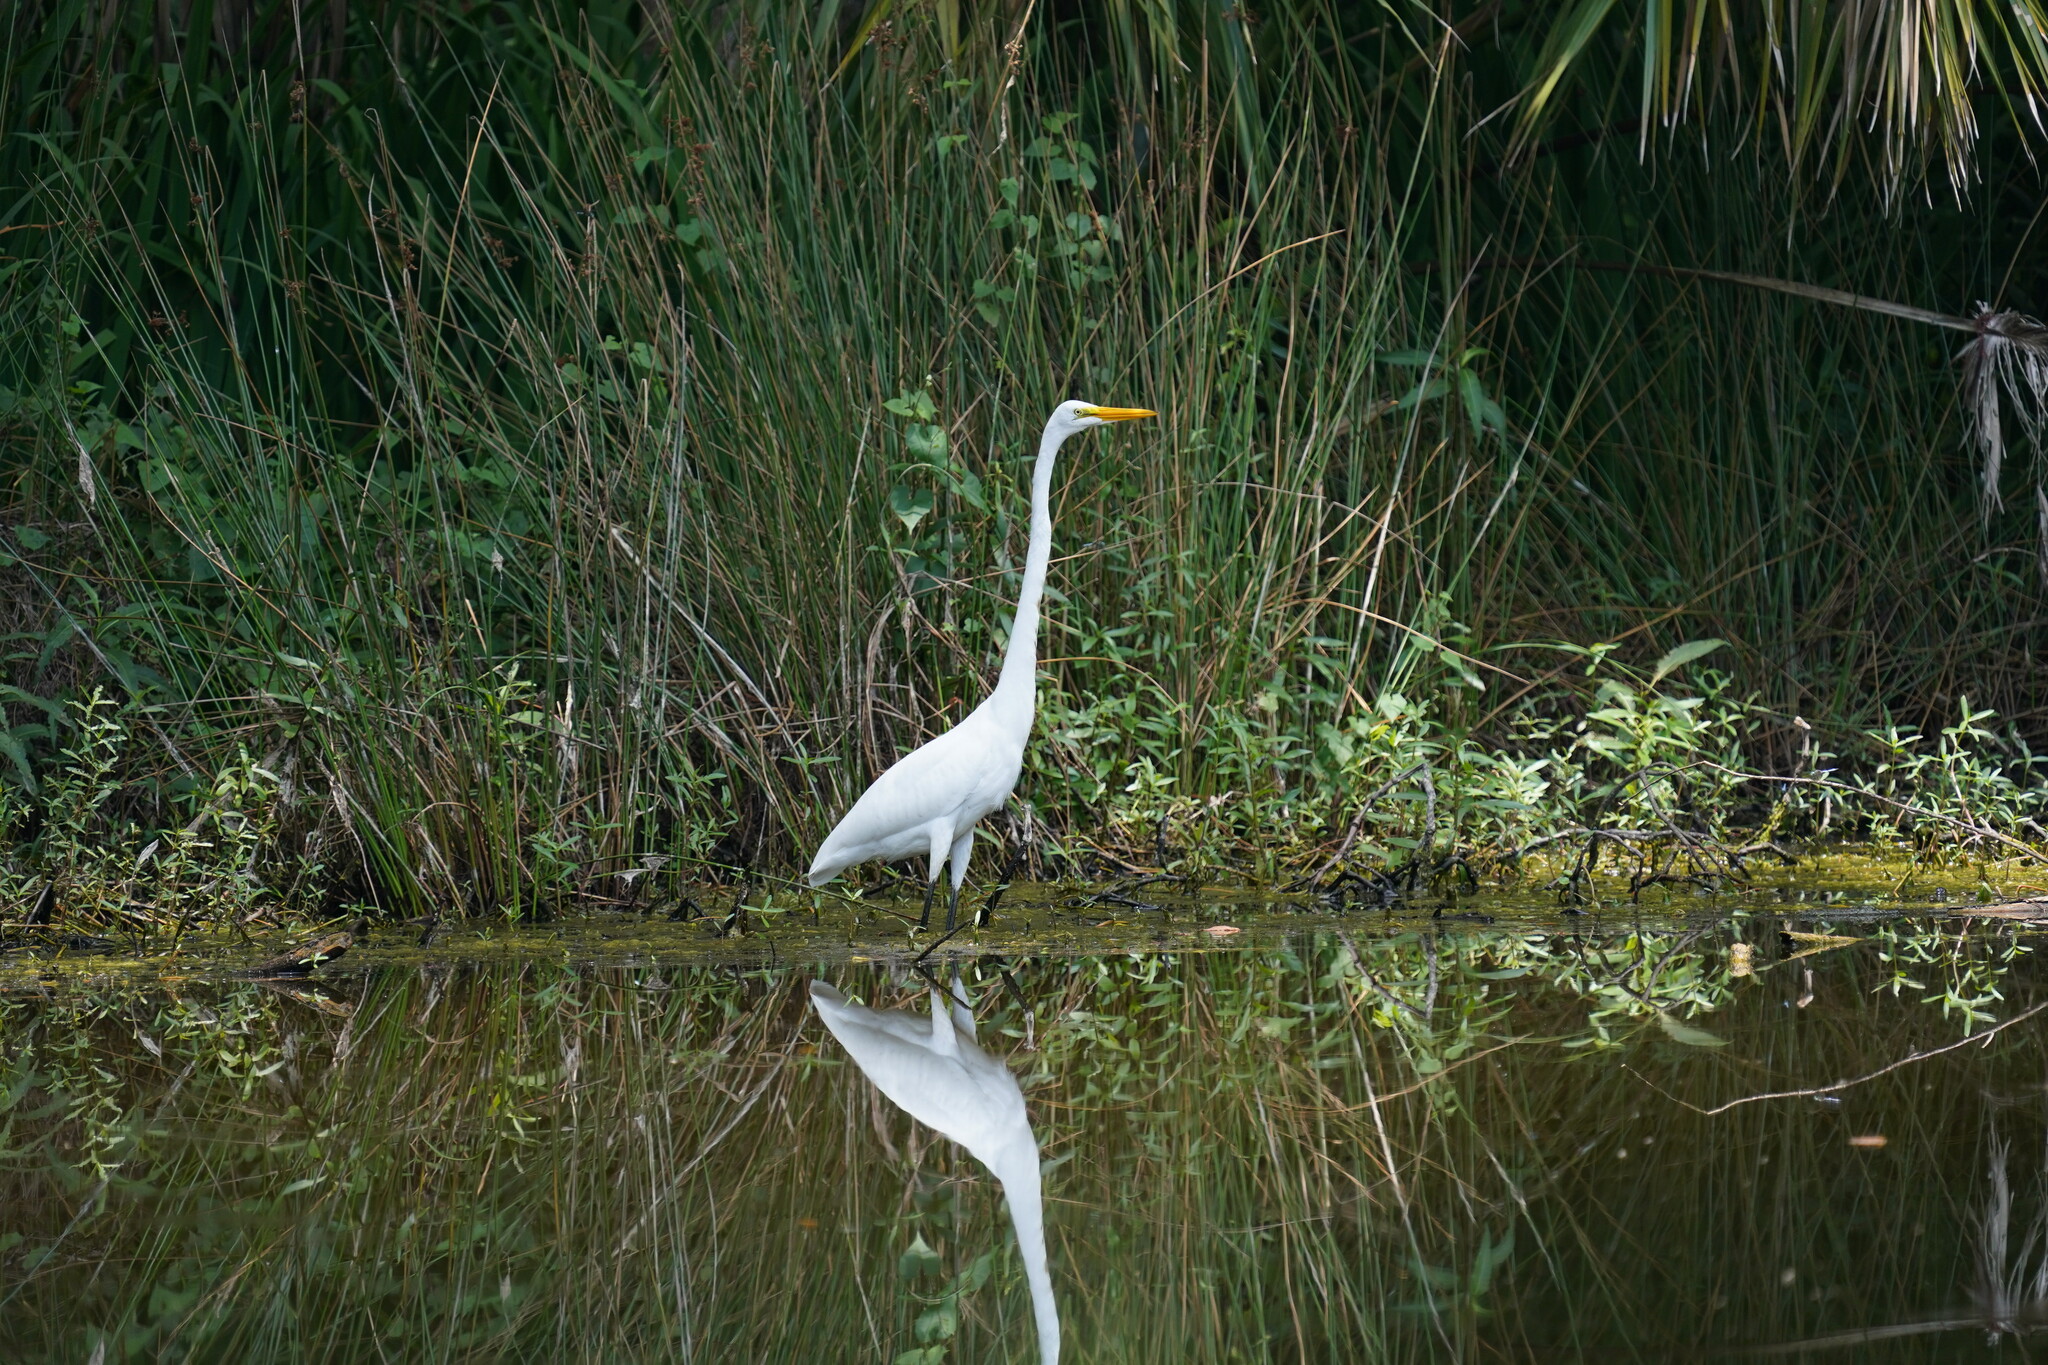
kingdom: Animalia
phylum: Chordata
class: Aves
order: Pelecaniformes
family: Ardeidae
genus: Ardea
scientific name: Ardea alba
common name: Great egret
